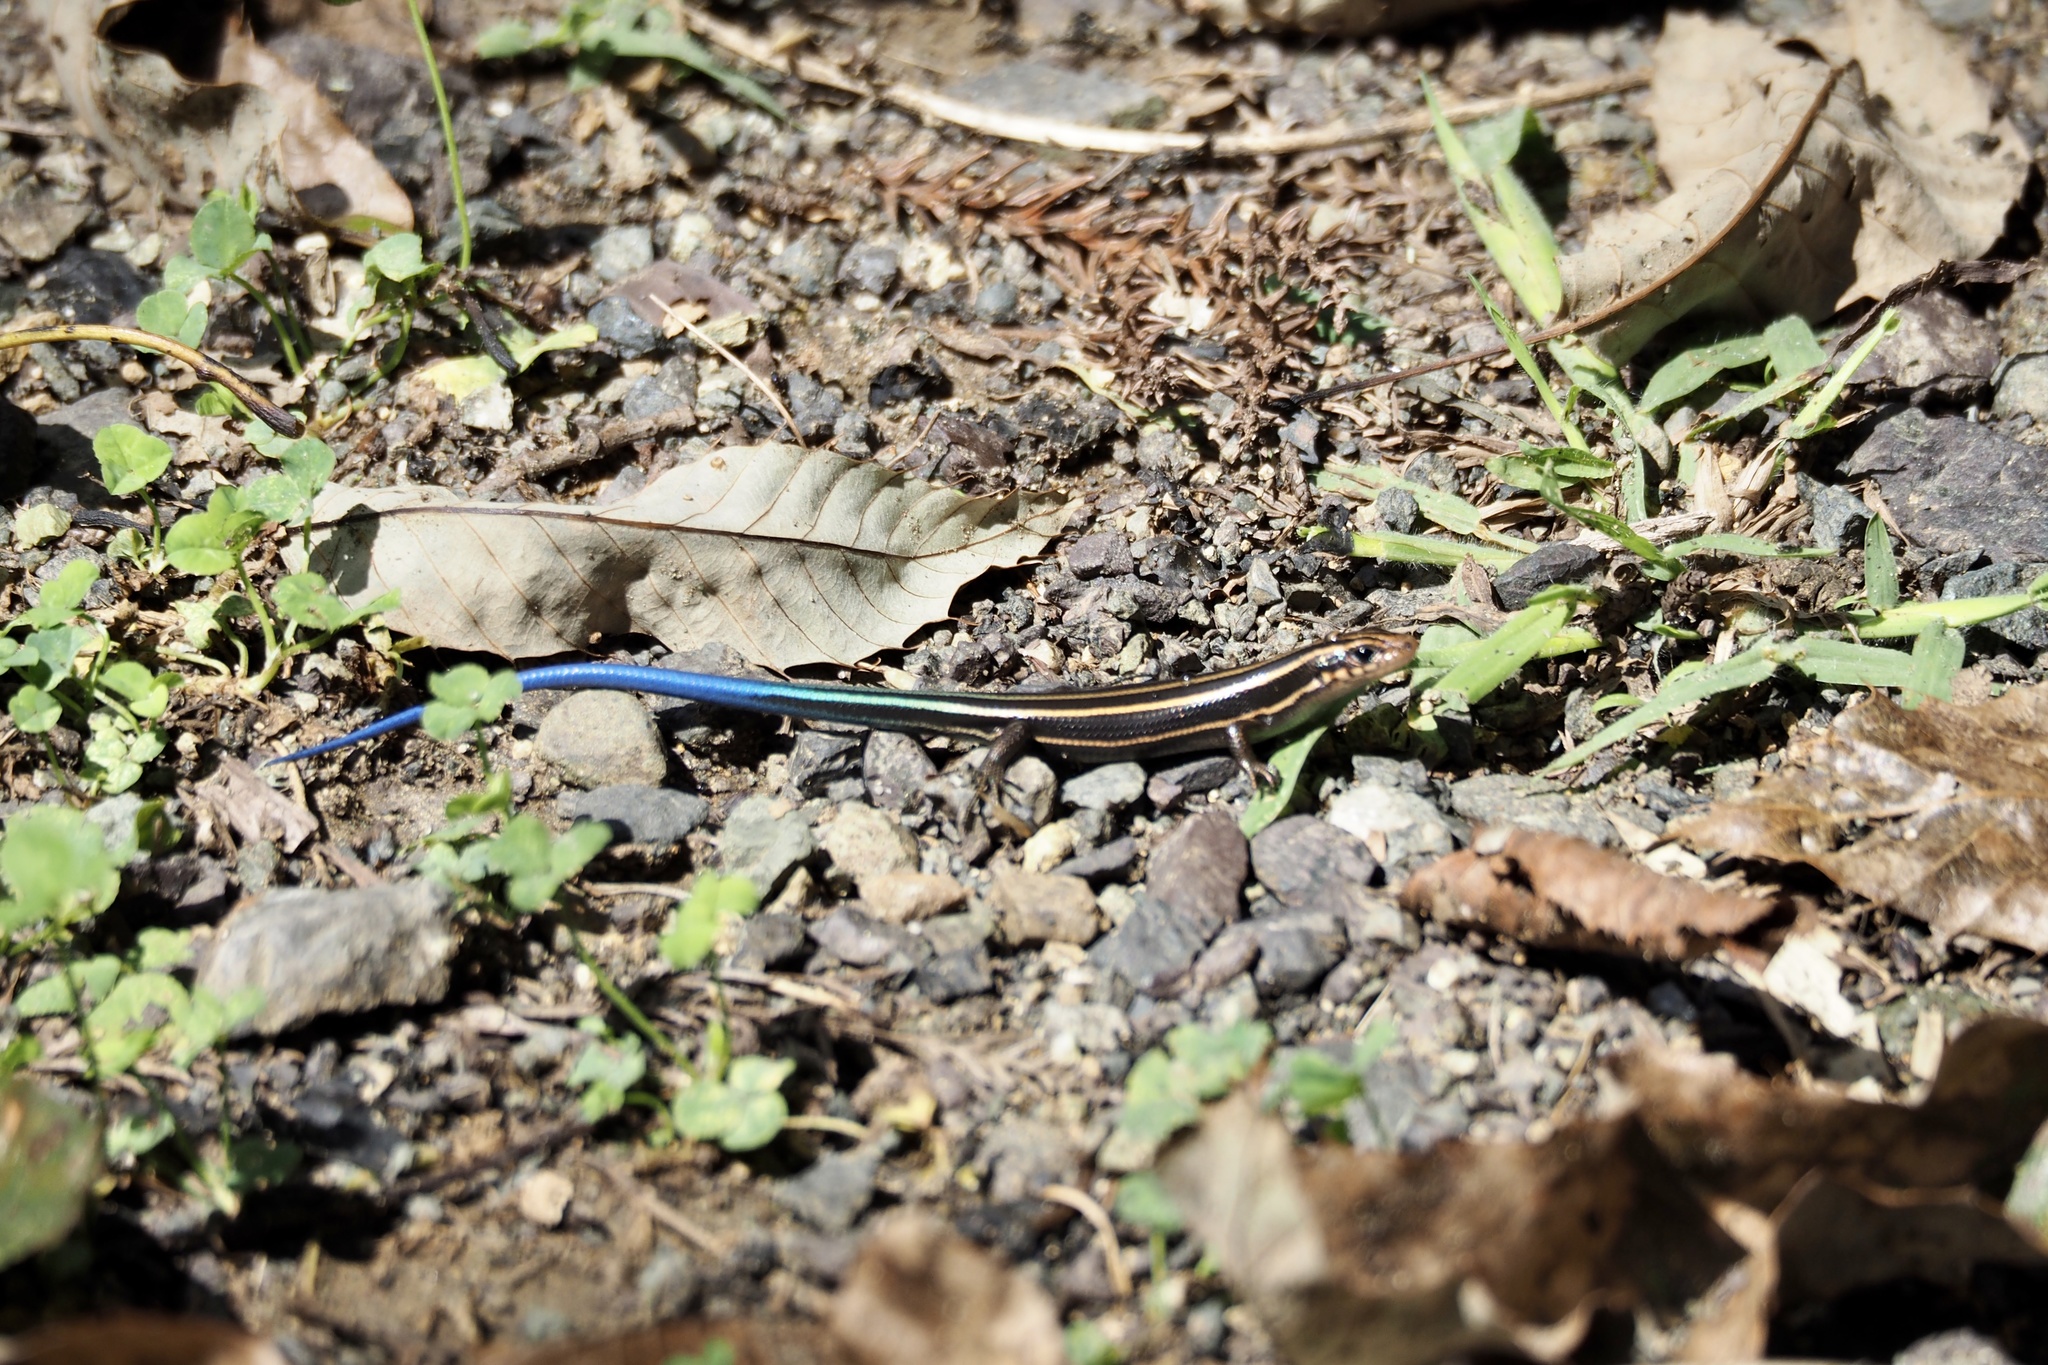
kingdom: Animalia
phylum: Chordata
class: Squamata
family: Scincidae
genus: Plestiodon
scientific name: Plestiodon japonicus
